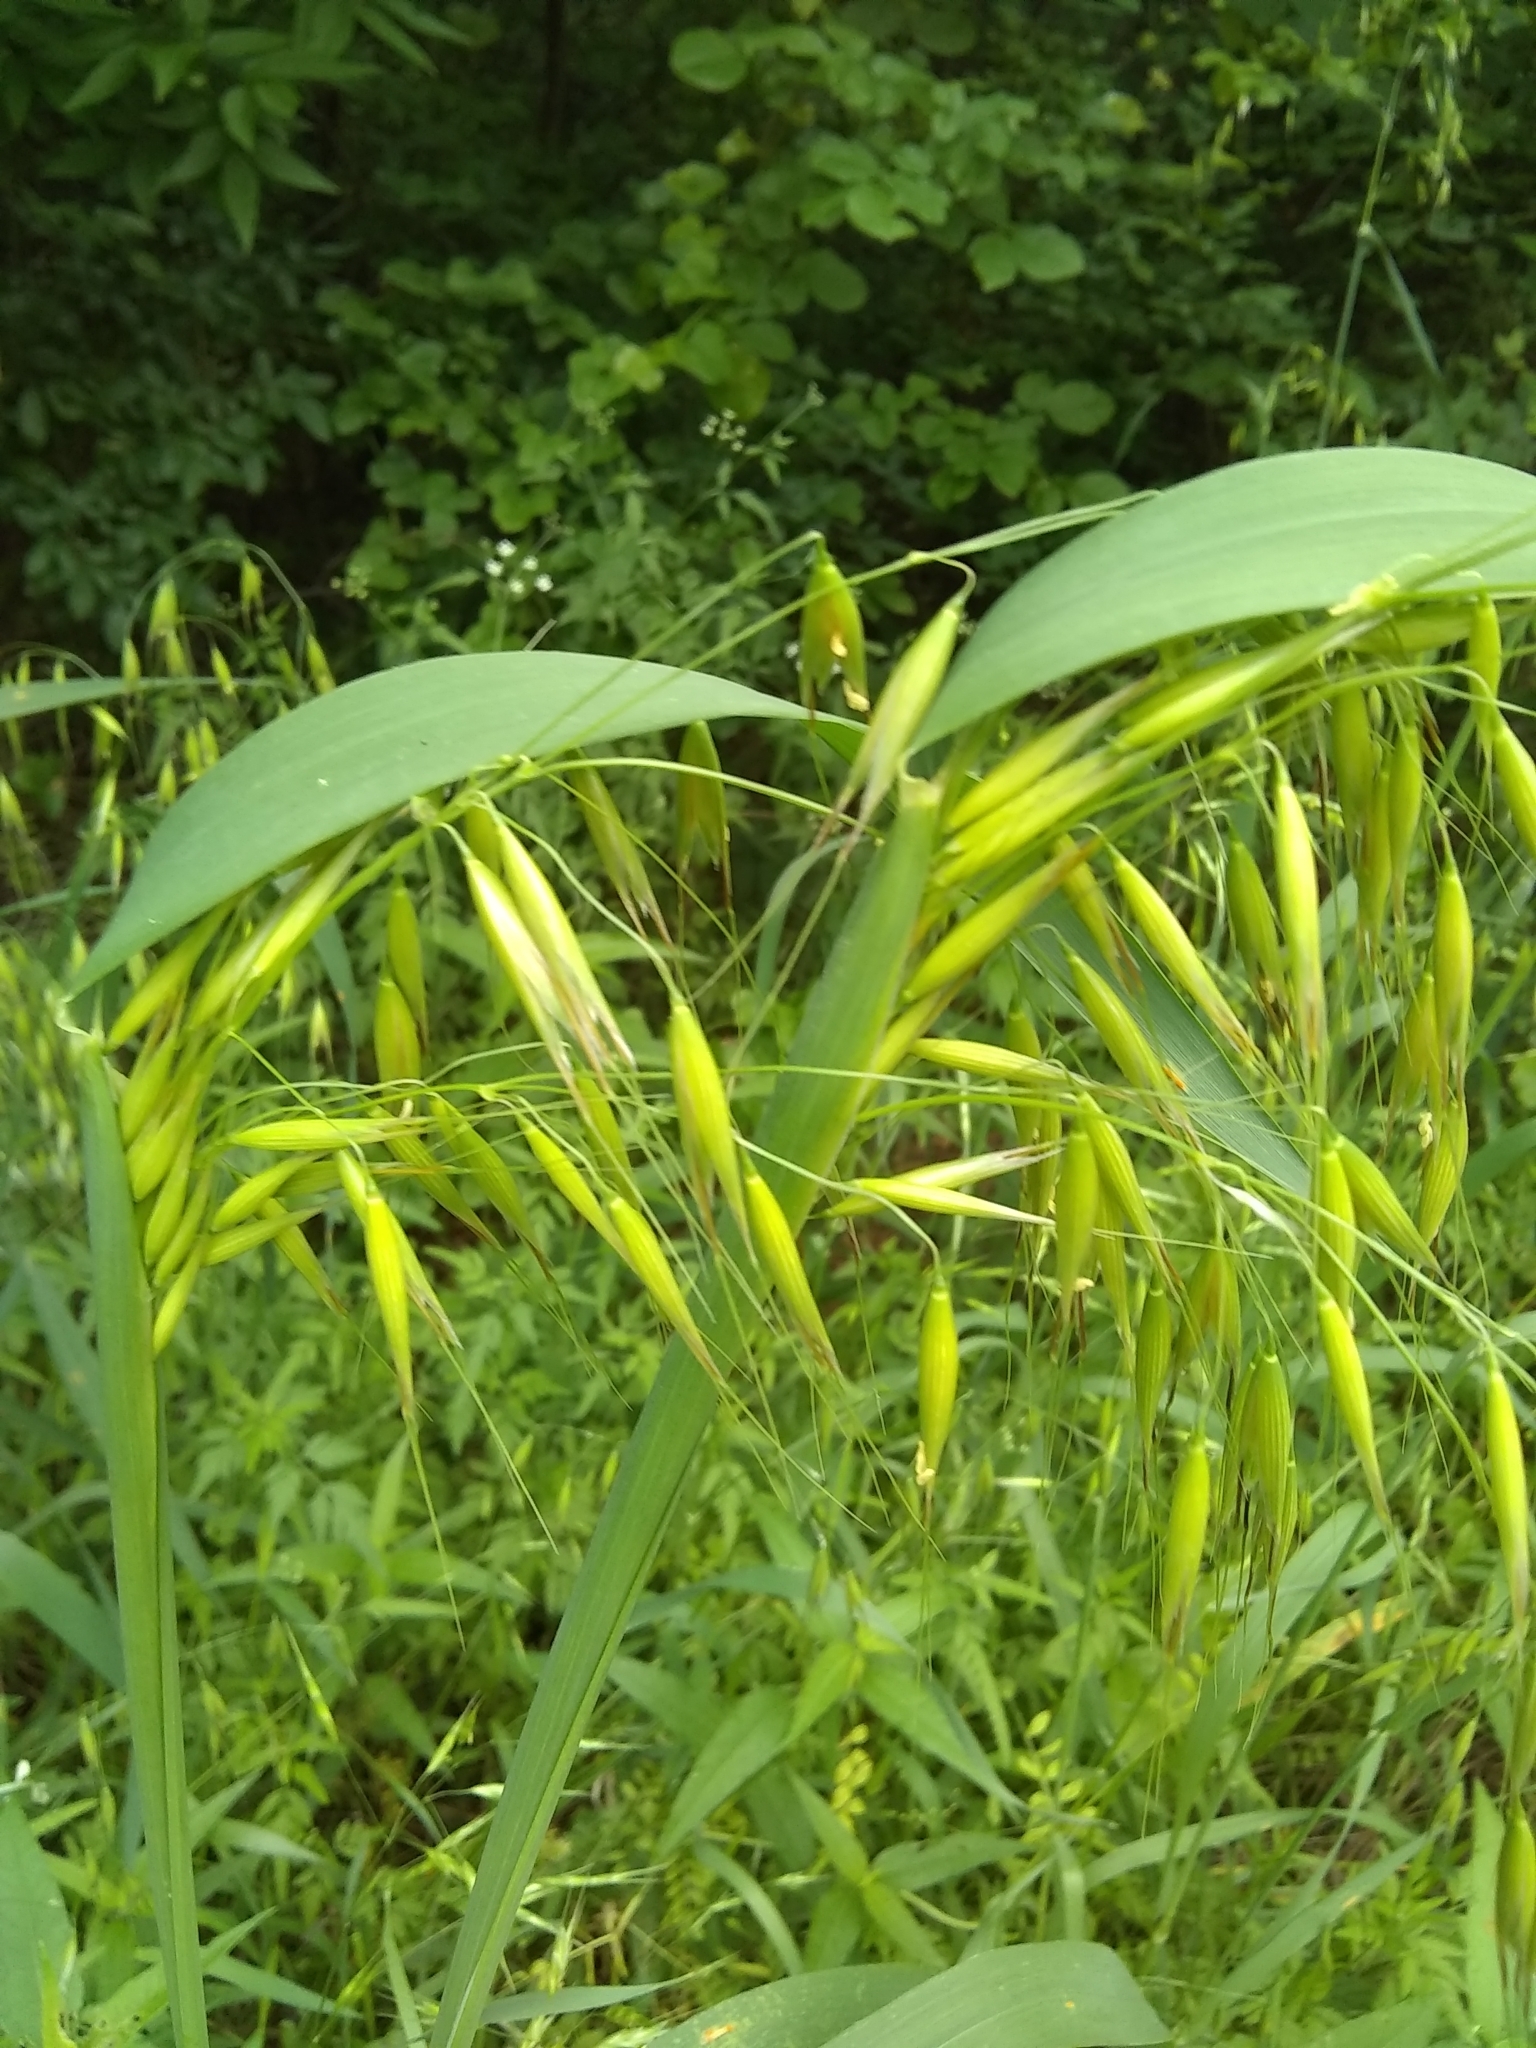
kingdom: Plantae
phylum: Tracheophyta
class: Liliopsida
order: Poales
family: Poaceae
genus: Avena
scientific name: Avena fatua
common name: Wild oat
